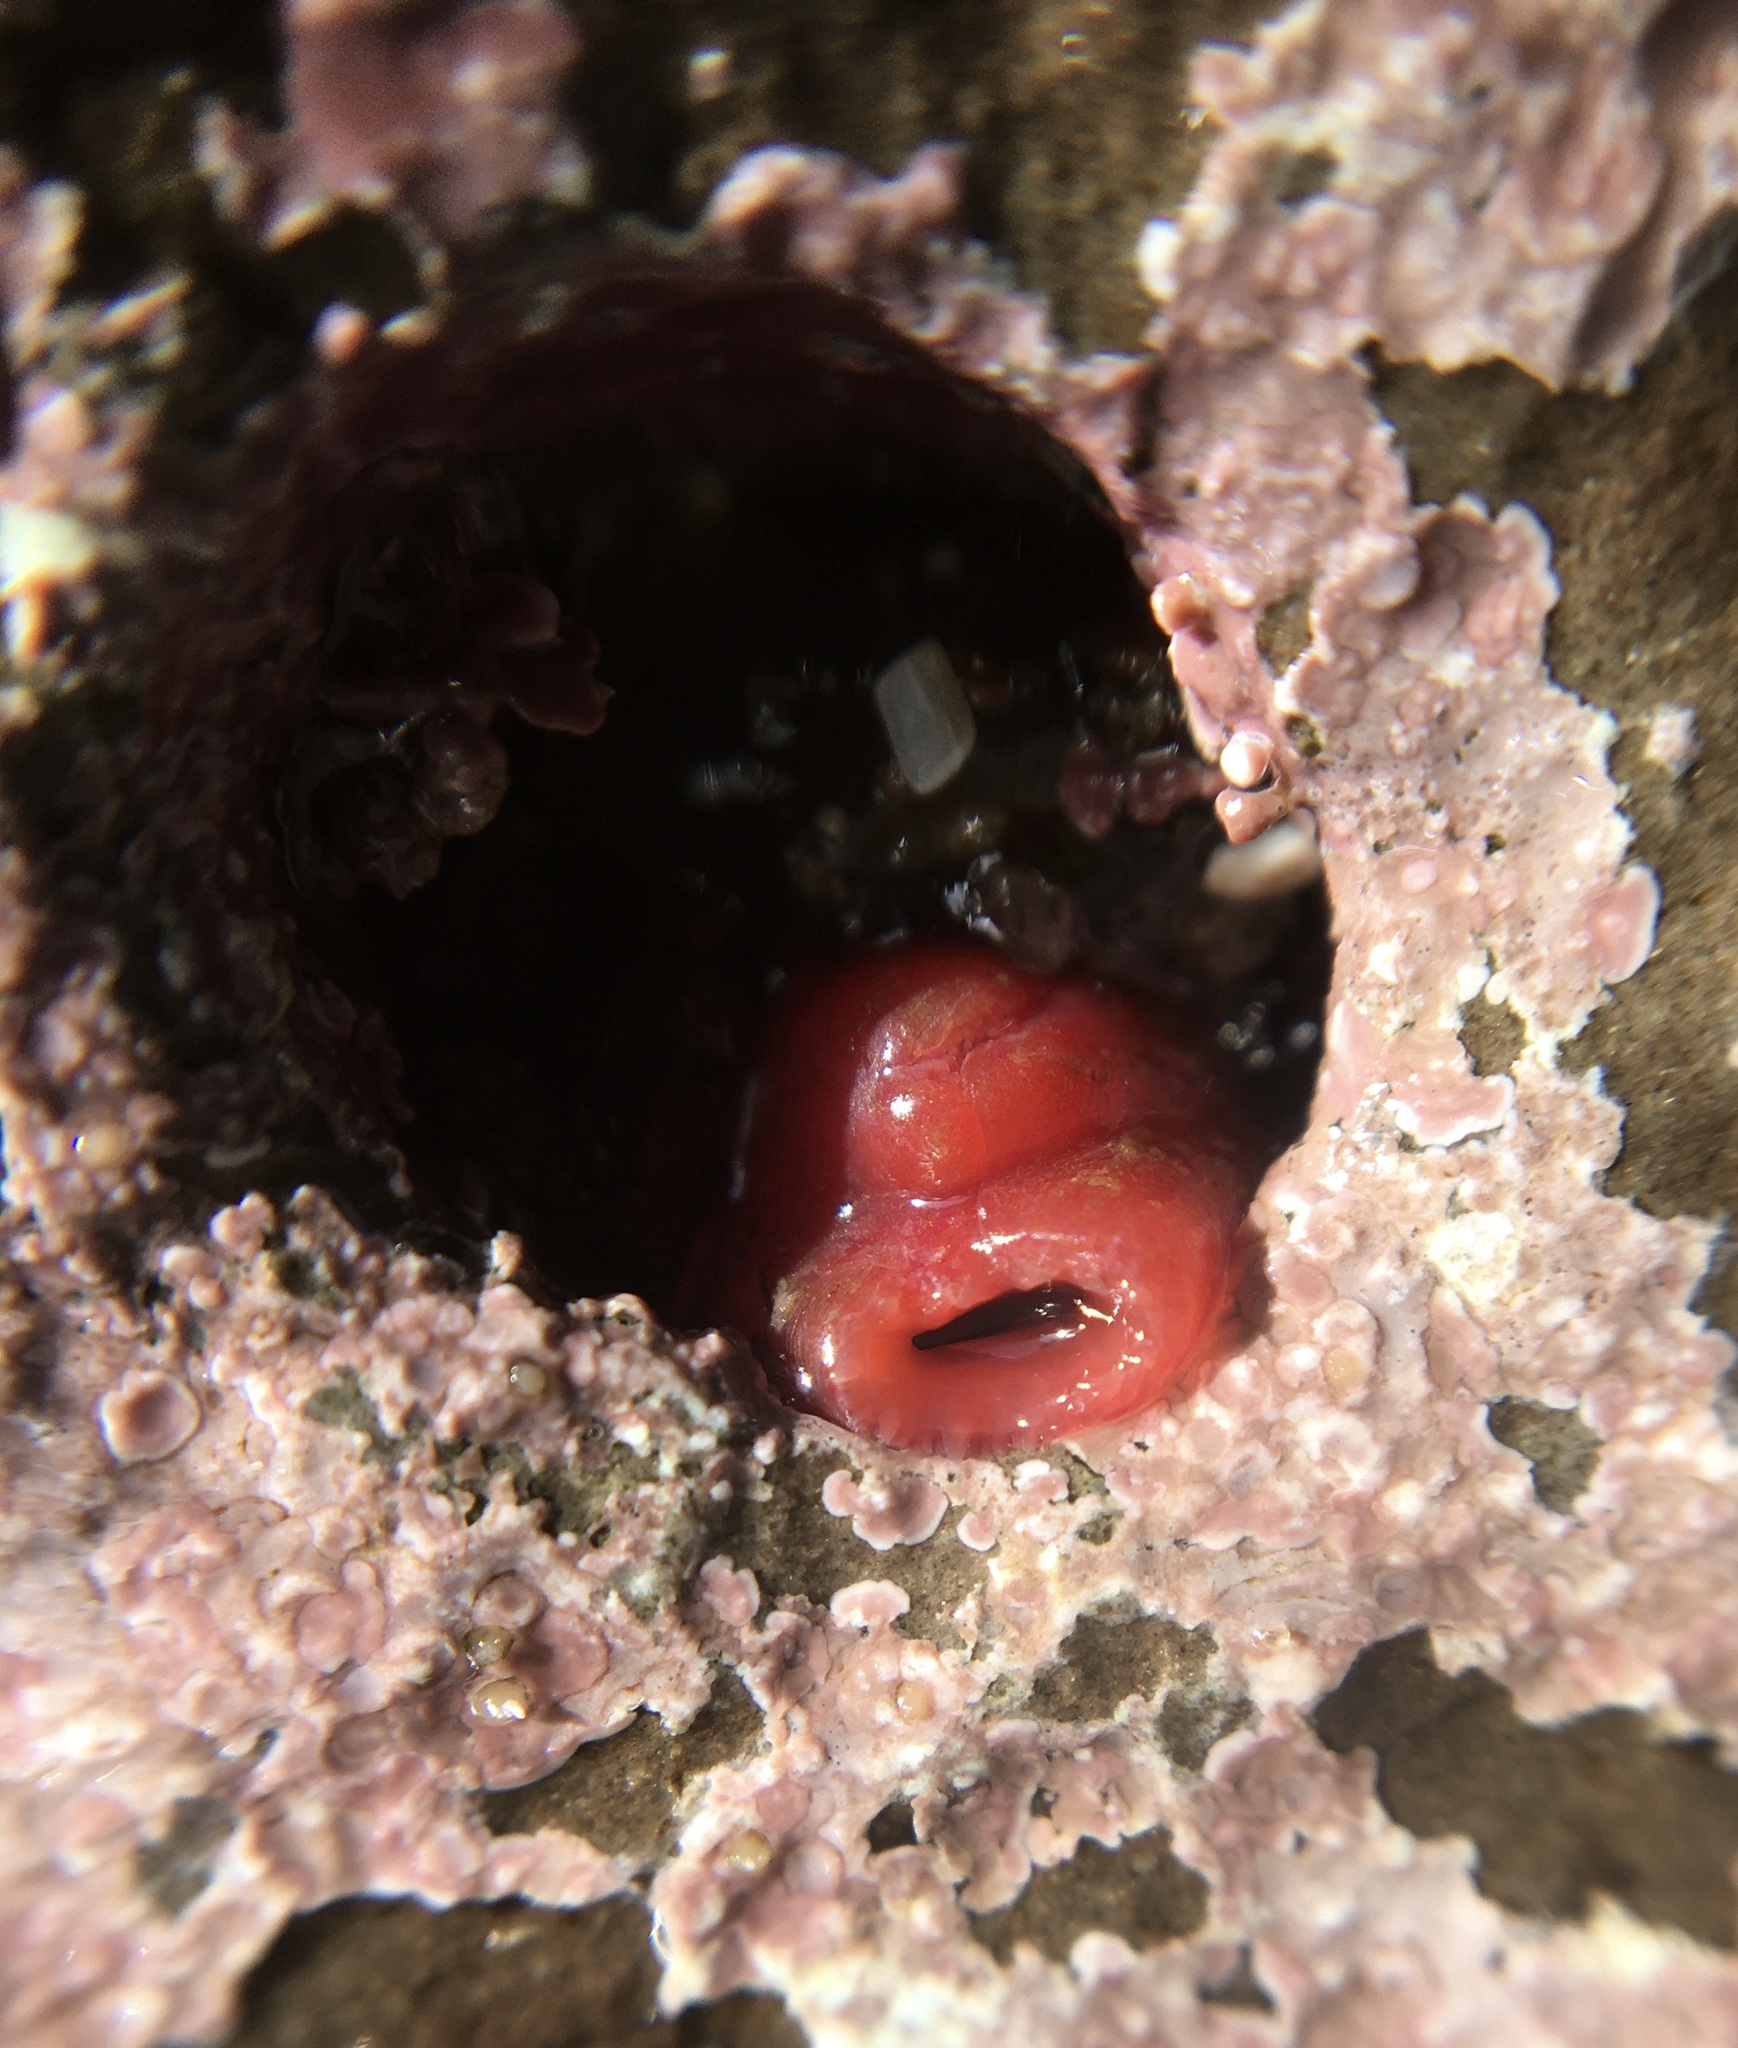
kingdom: Animalia
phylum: Mollusca
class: Bivalvia
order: Adapedonta
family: Hiatellidae
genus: Hiatella
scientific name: Hiatella arctica
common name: Arctic hiatella
